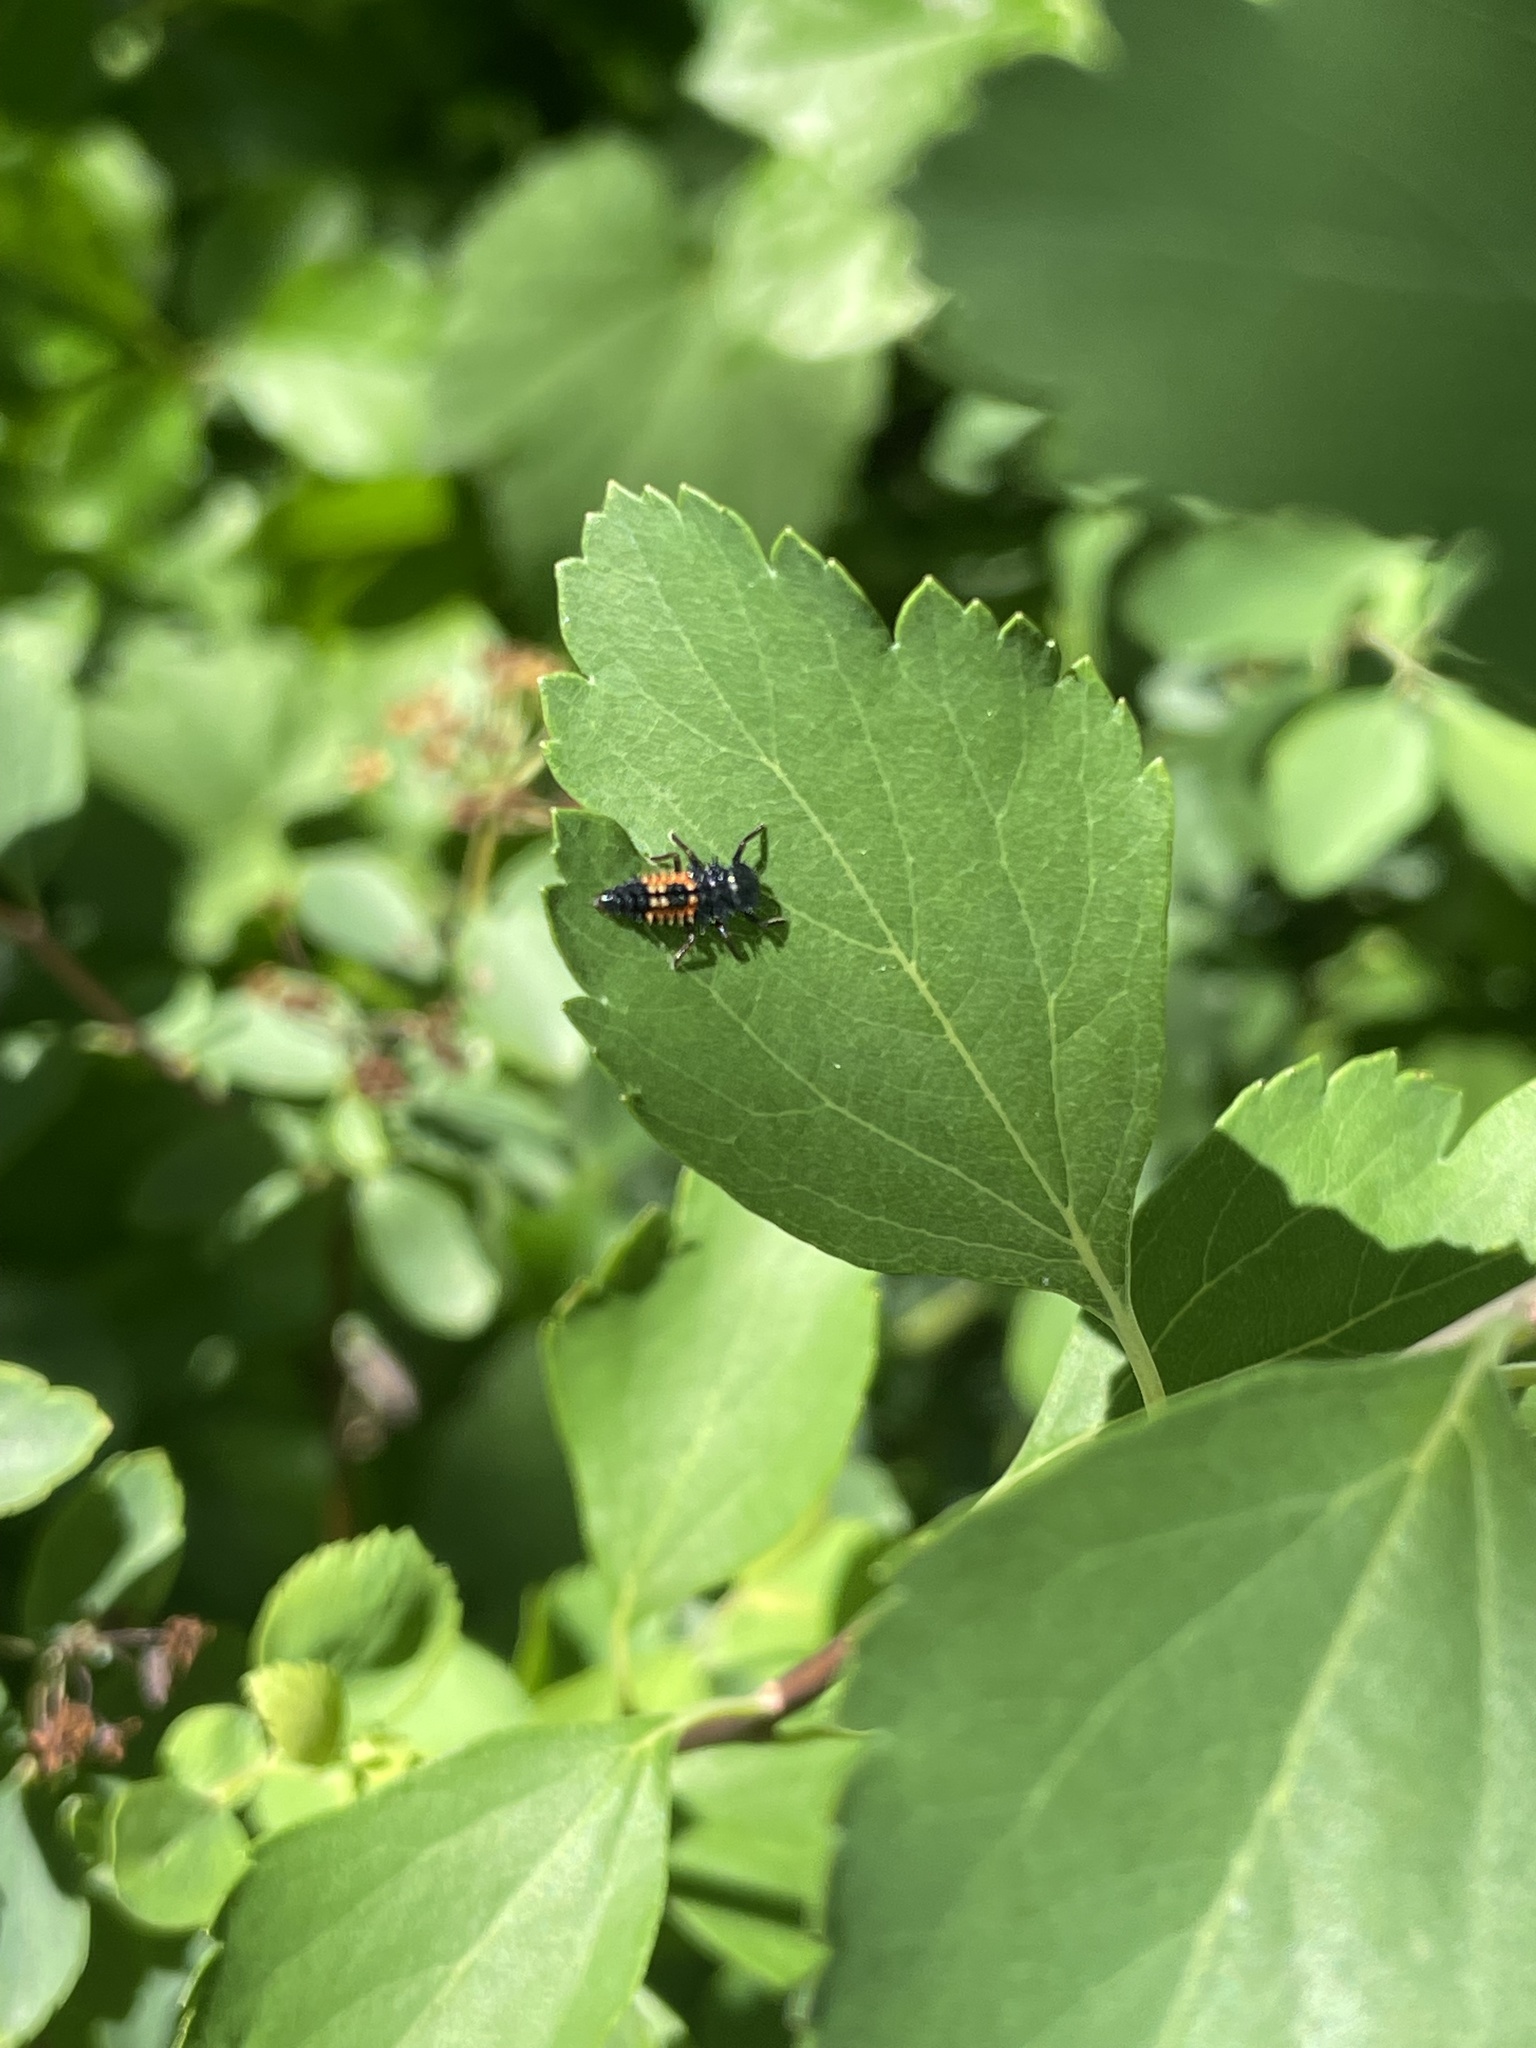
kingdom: Animalia
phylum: Arthropoda
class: Insecta
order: Coleoptera
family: Coccinellidae
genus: Harmonia
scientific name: Harmonia axyridis
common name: Harlequin ladybird
